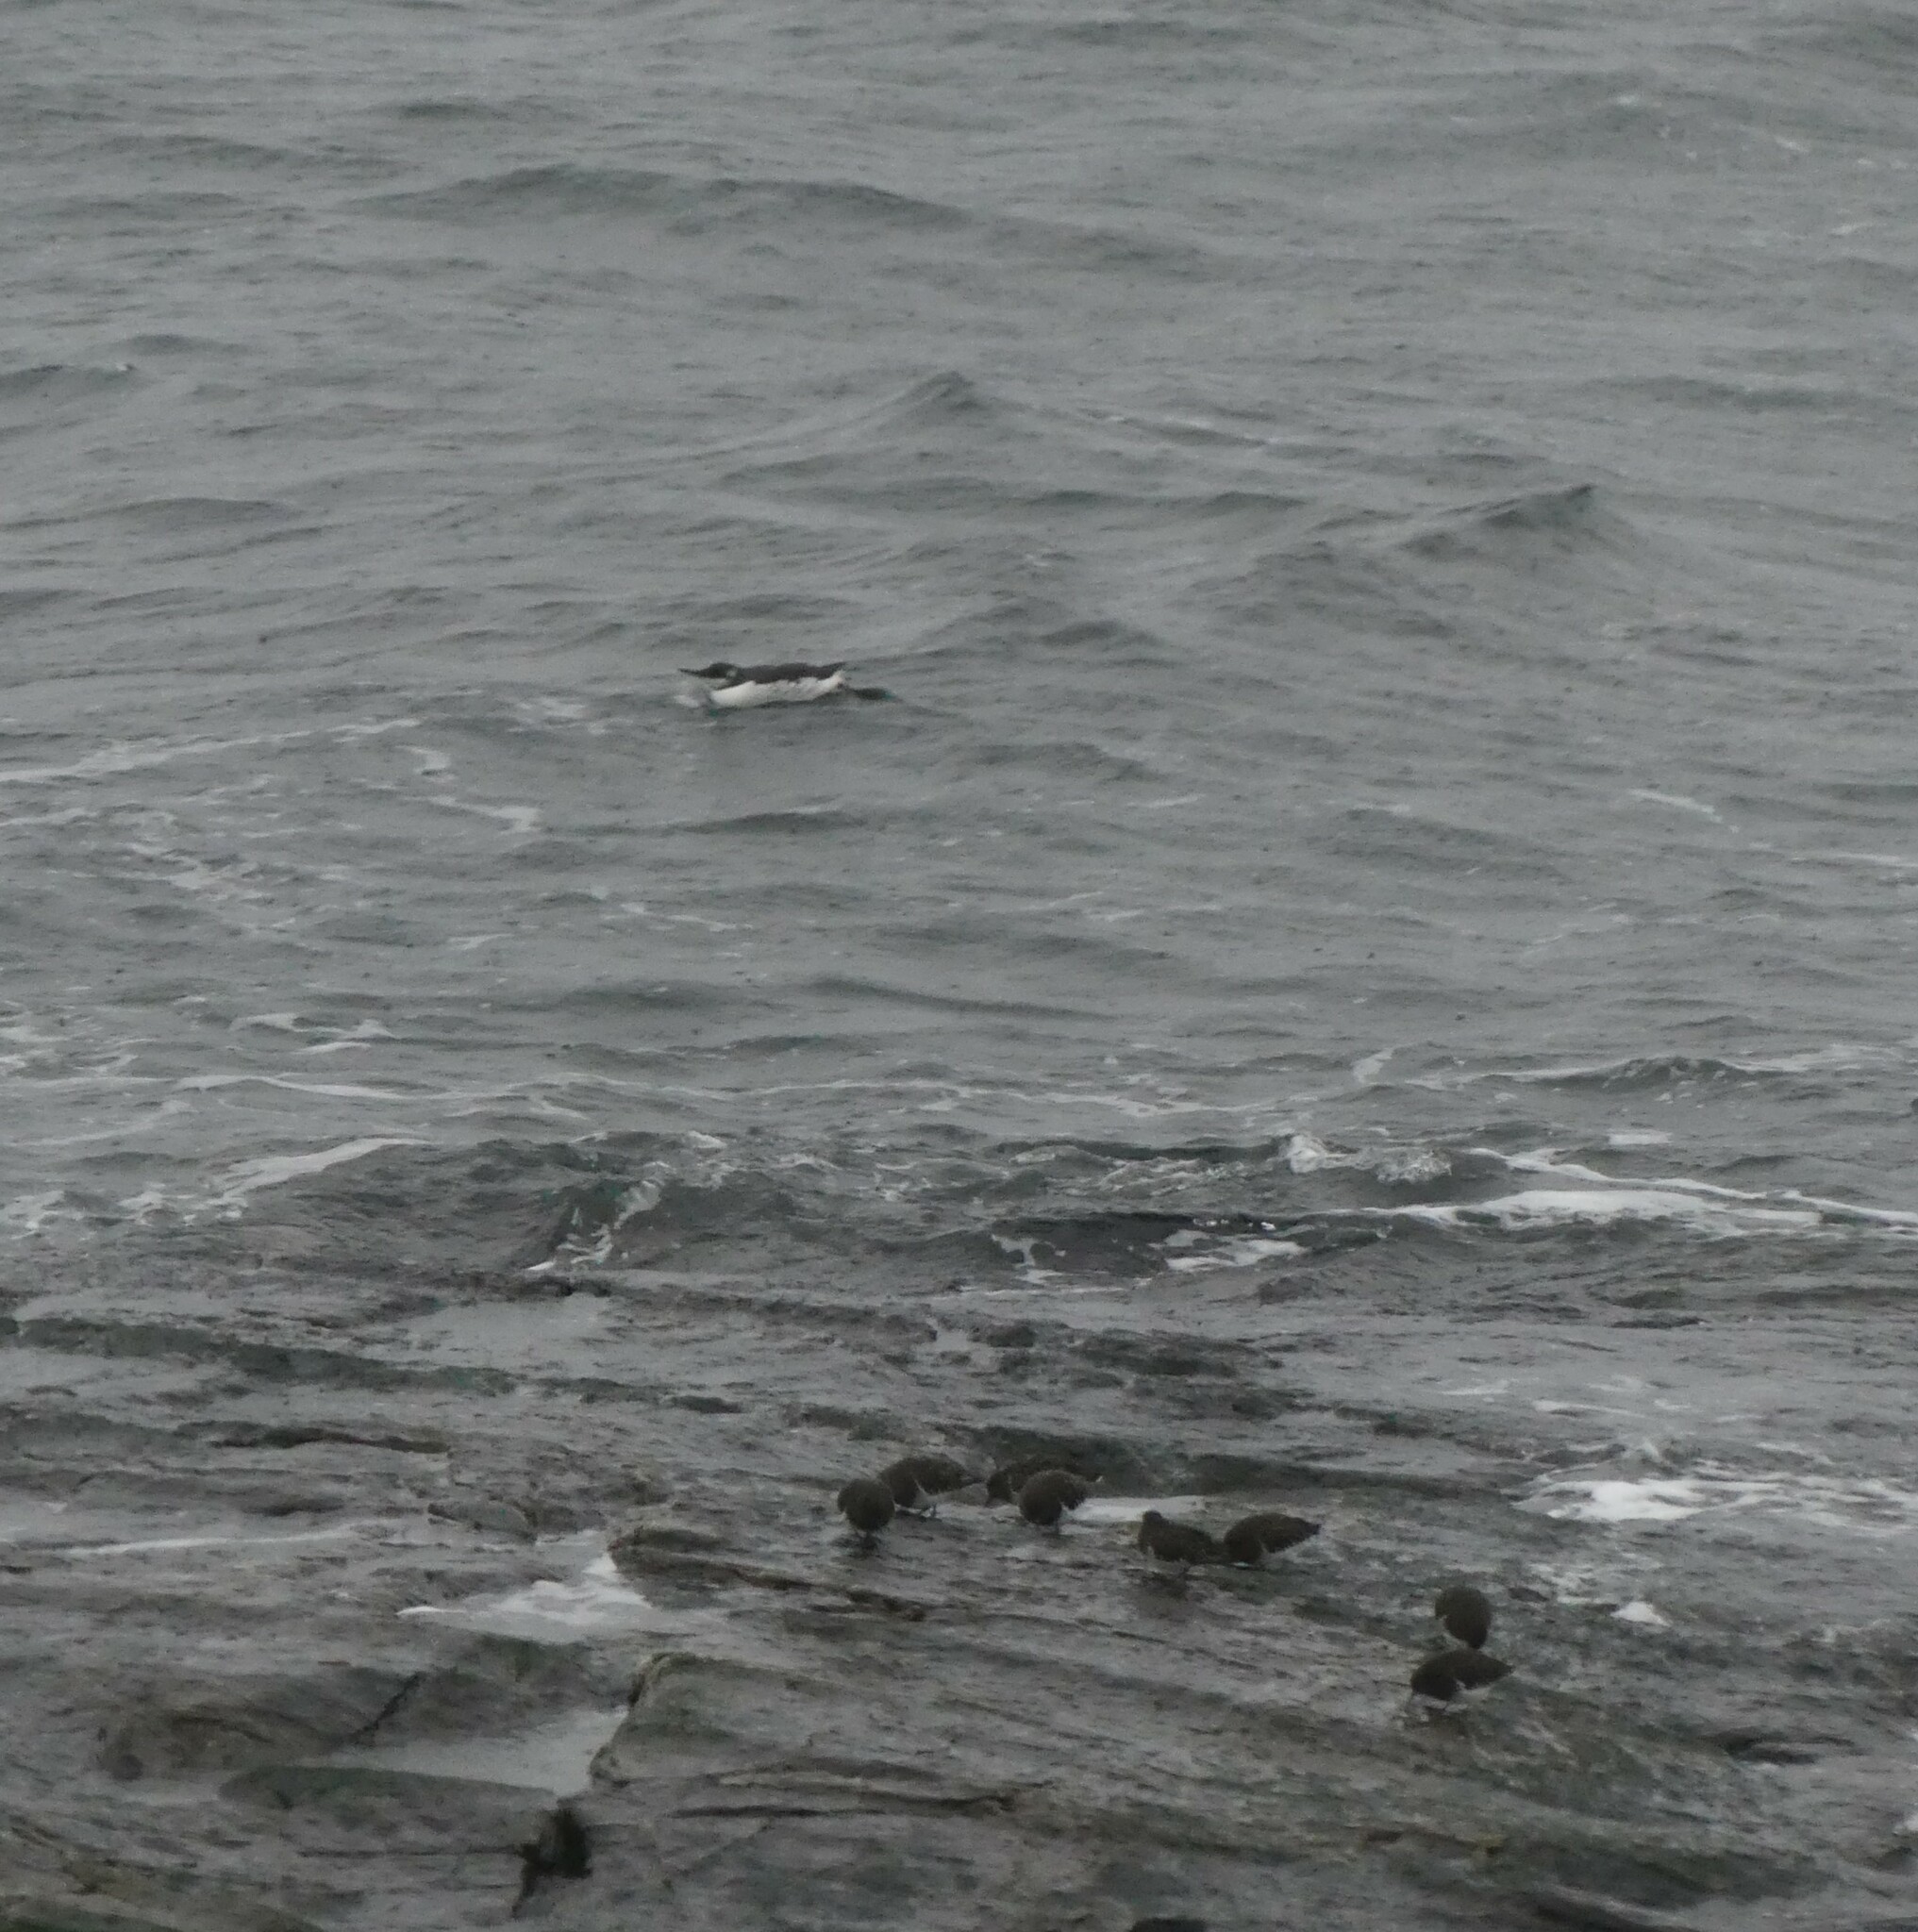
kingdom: Animalia
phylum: Chordata
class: Aves
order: Charadriiformes
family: Alcidae
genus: Uria
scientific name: Uria aalge
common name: Common murre
